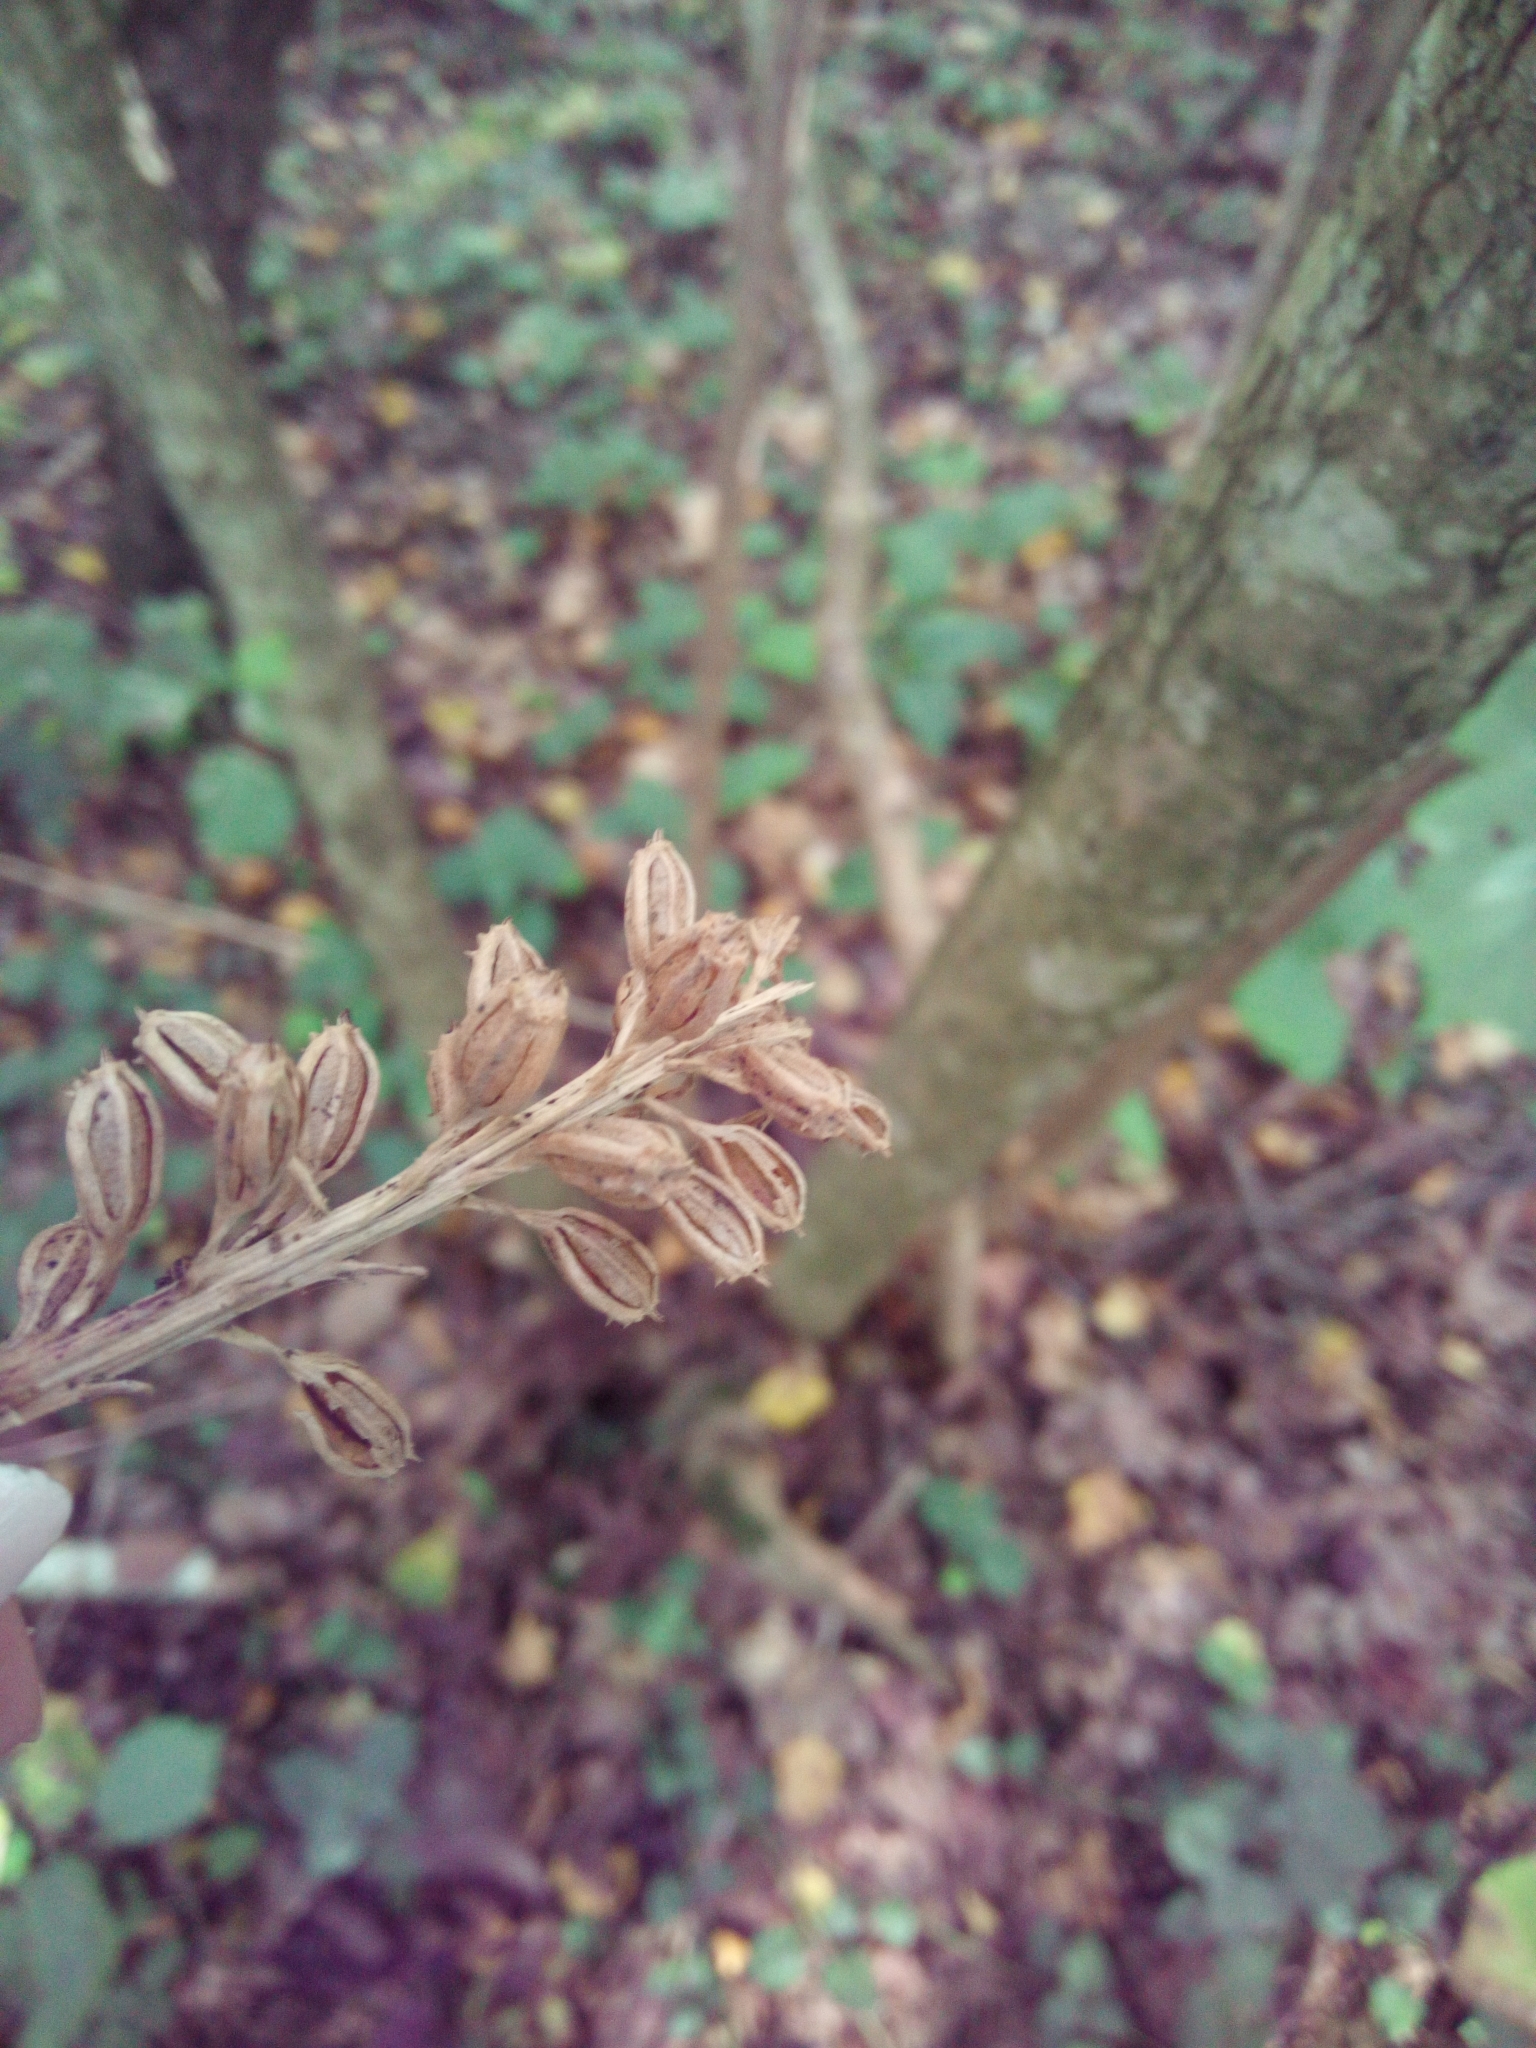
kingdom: Plantae
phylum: Tracheophyta
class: Liliopsida
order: Asparagales
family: Orchidaceae
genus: Neottia
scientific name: Neottia nidus-avis
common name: Bird's-nest orchid
